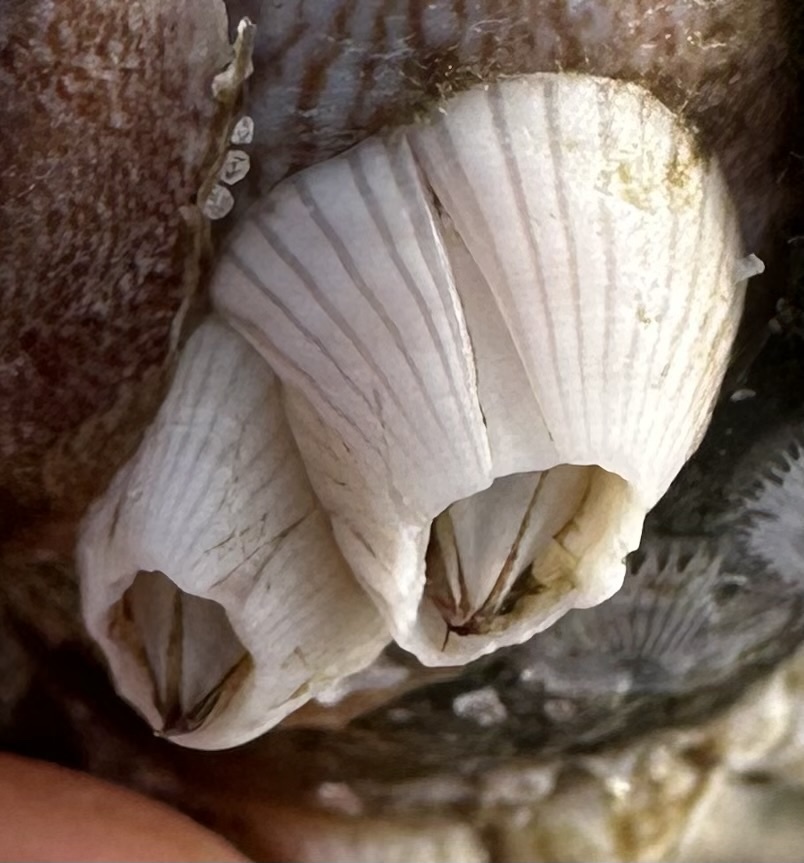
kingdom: Animalia
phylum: Arthropoda
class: Maxillopoda
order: Sessilia
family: Balanidae
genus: Amphibalanus
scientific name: Amphibalanus venustus
